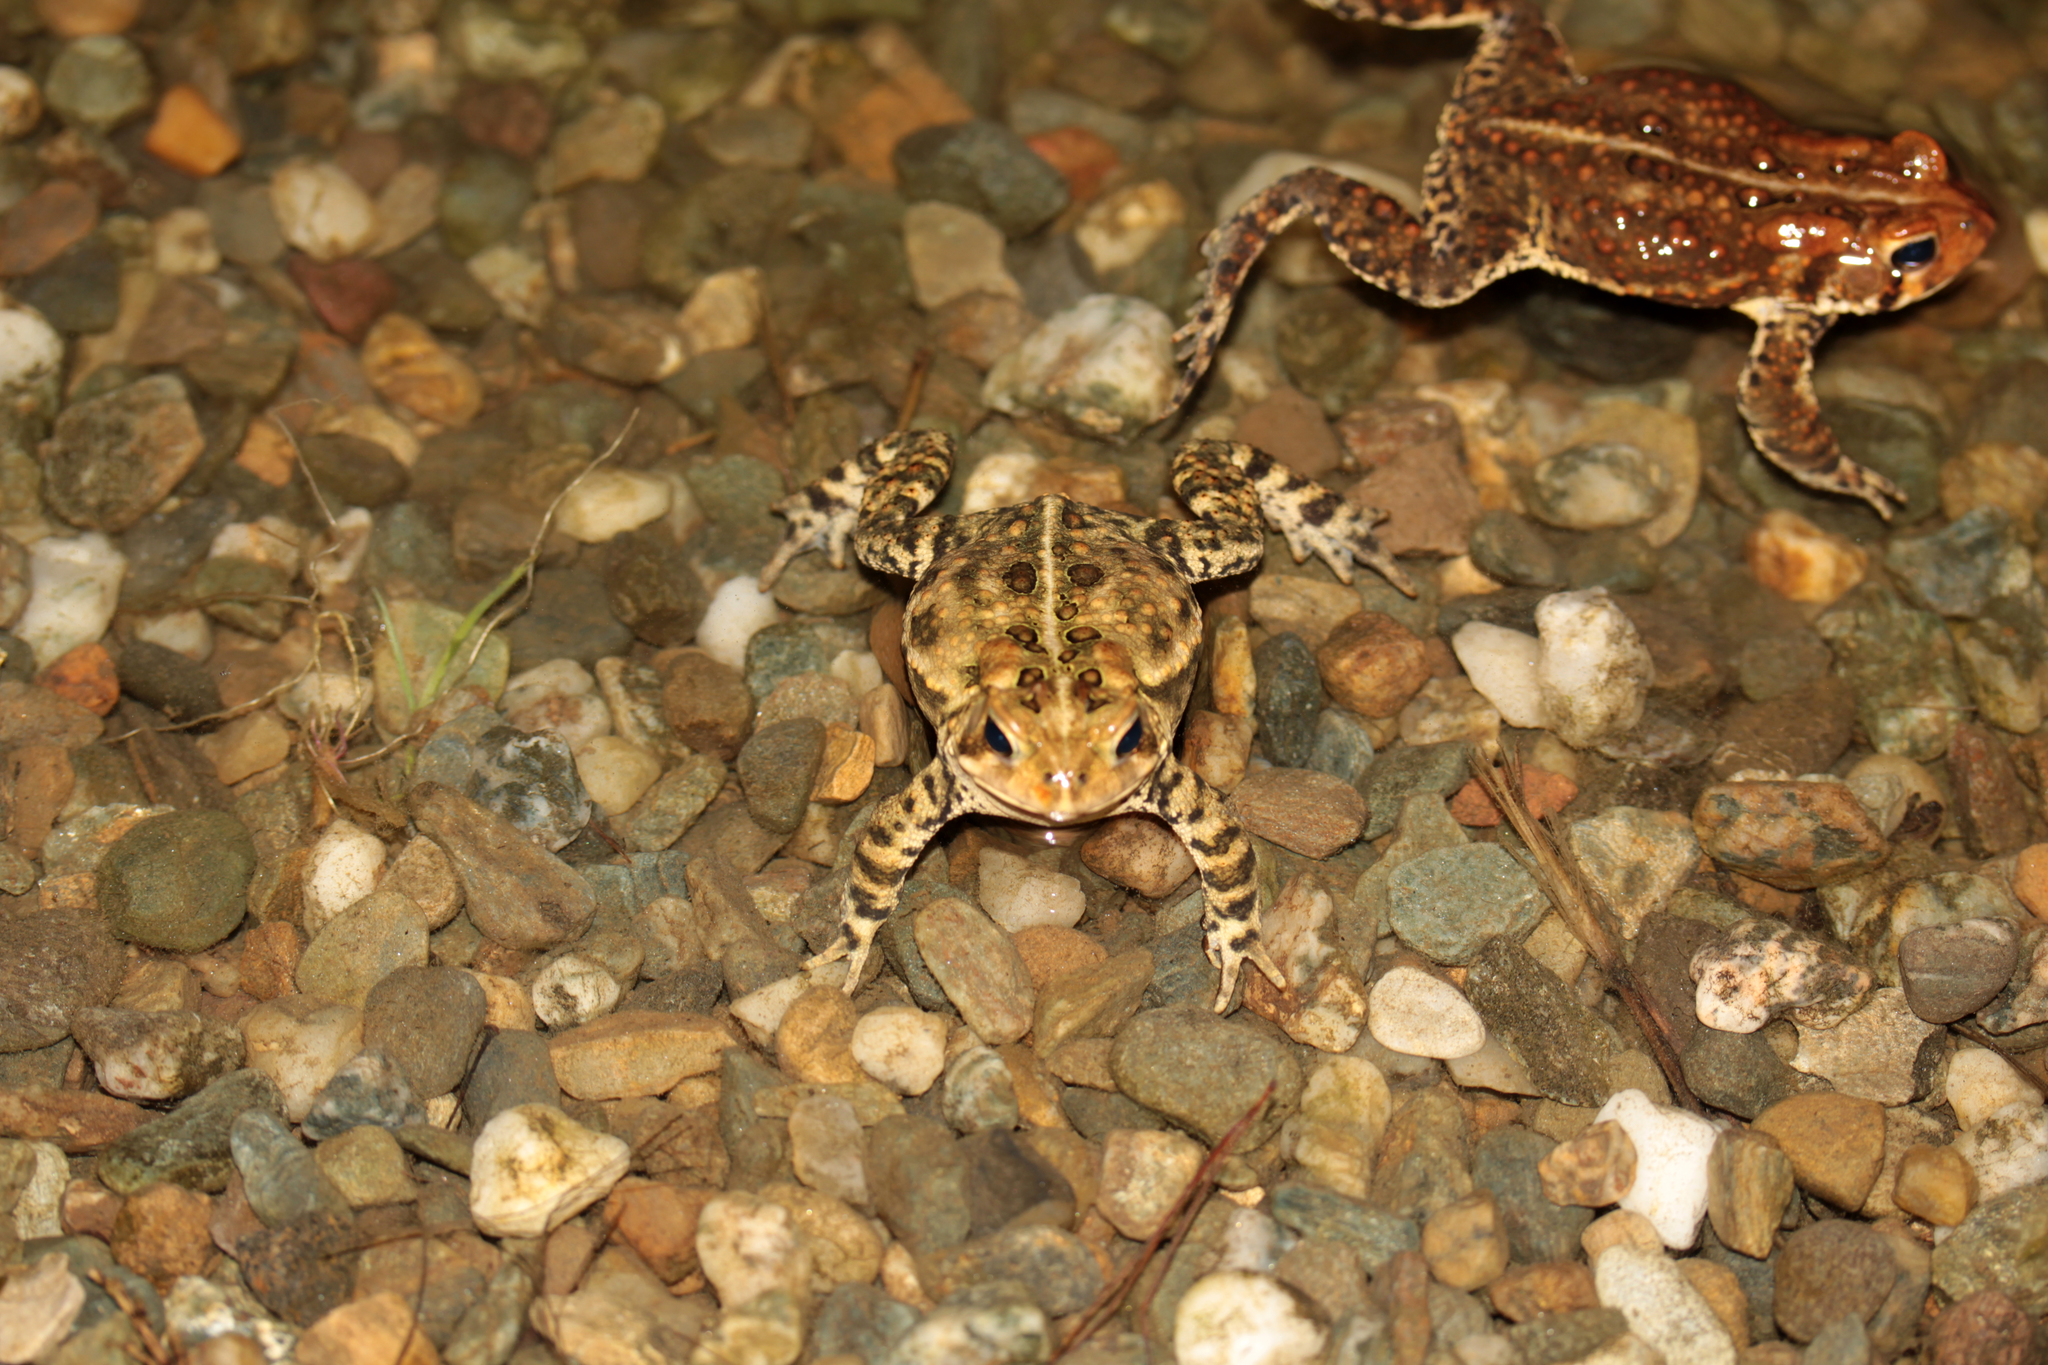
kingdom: Animalia
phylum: Chordata
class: Amphibia
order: Anura
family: Bufonidae
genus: Anaxyrus
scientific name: Anaxyrus americanus
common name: American toad
